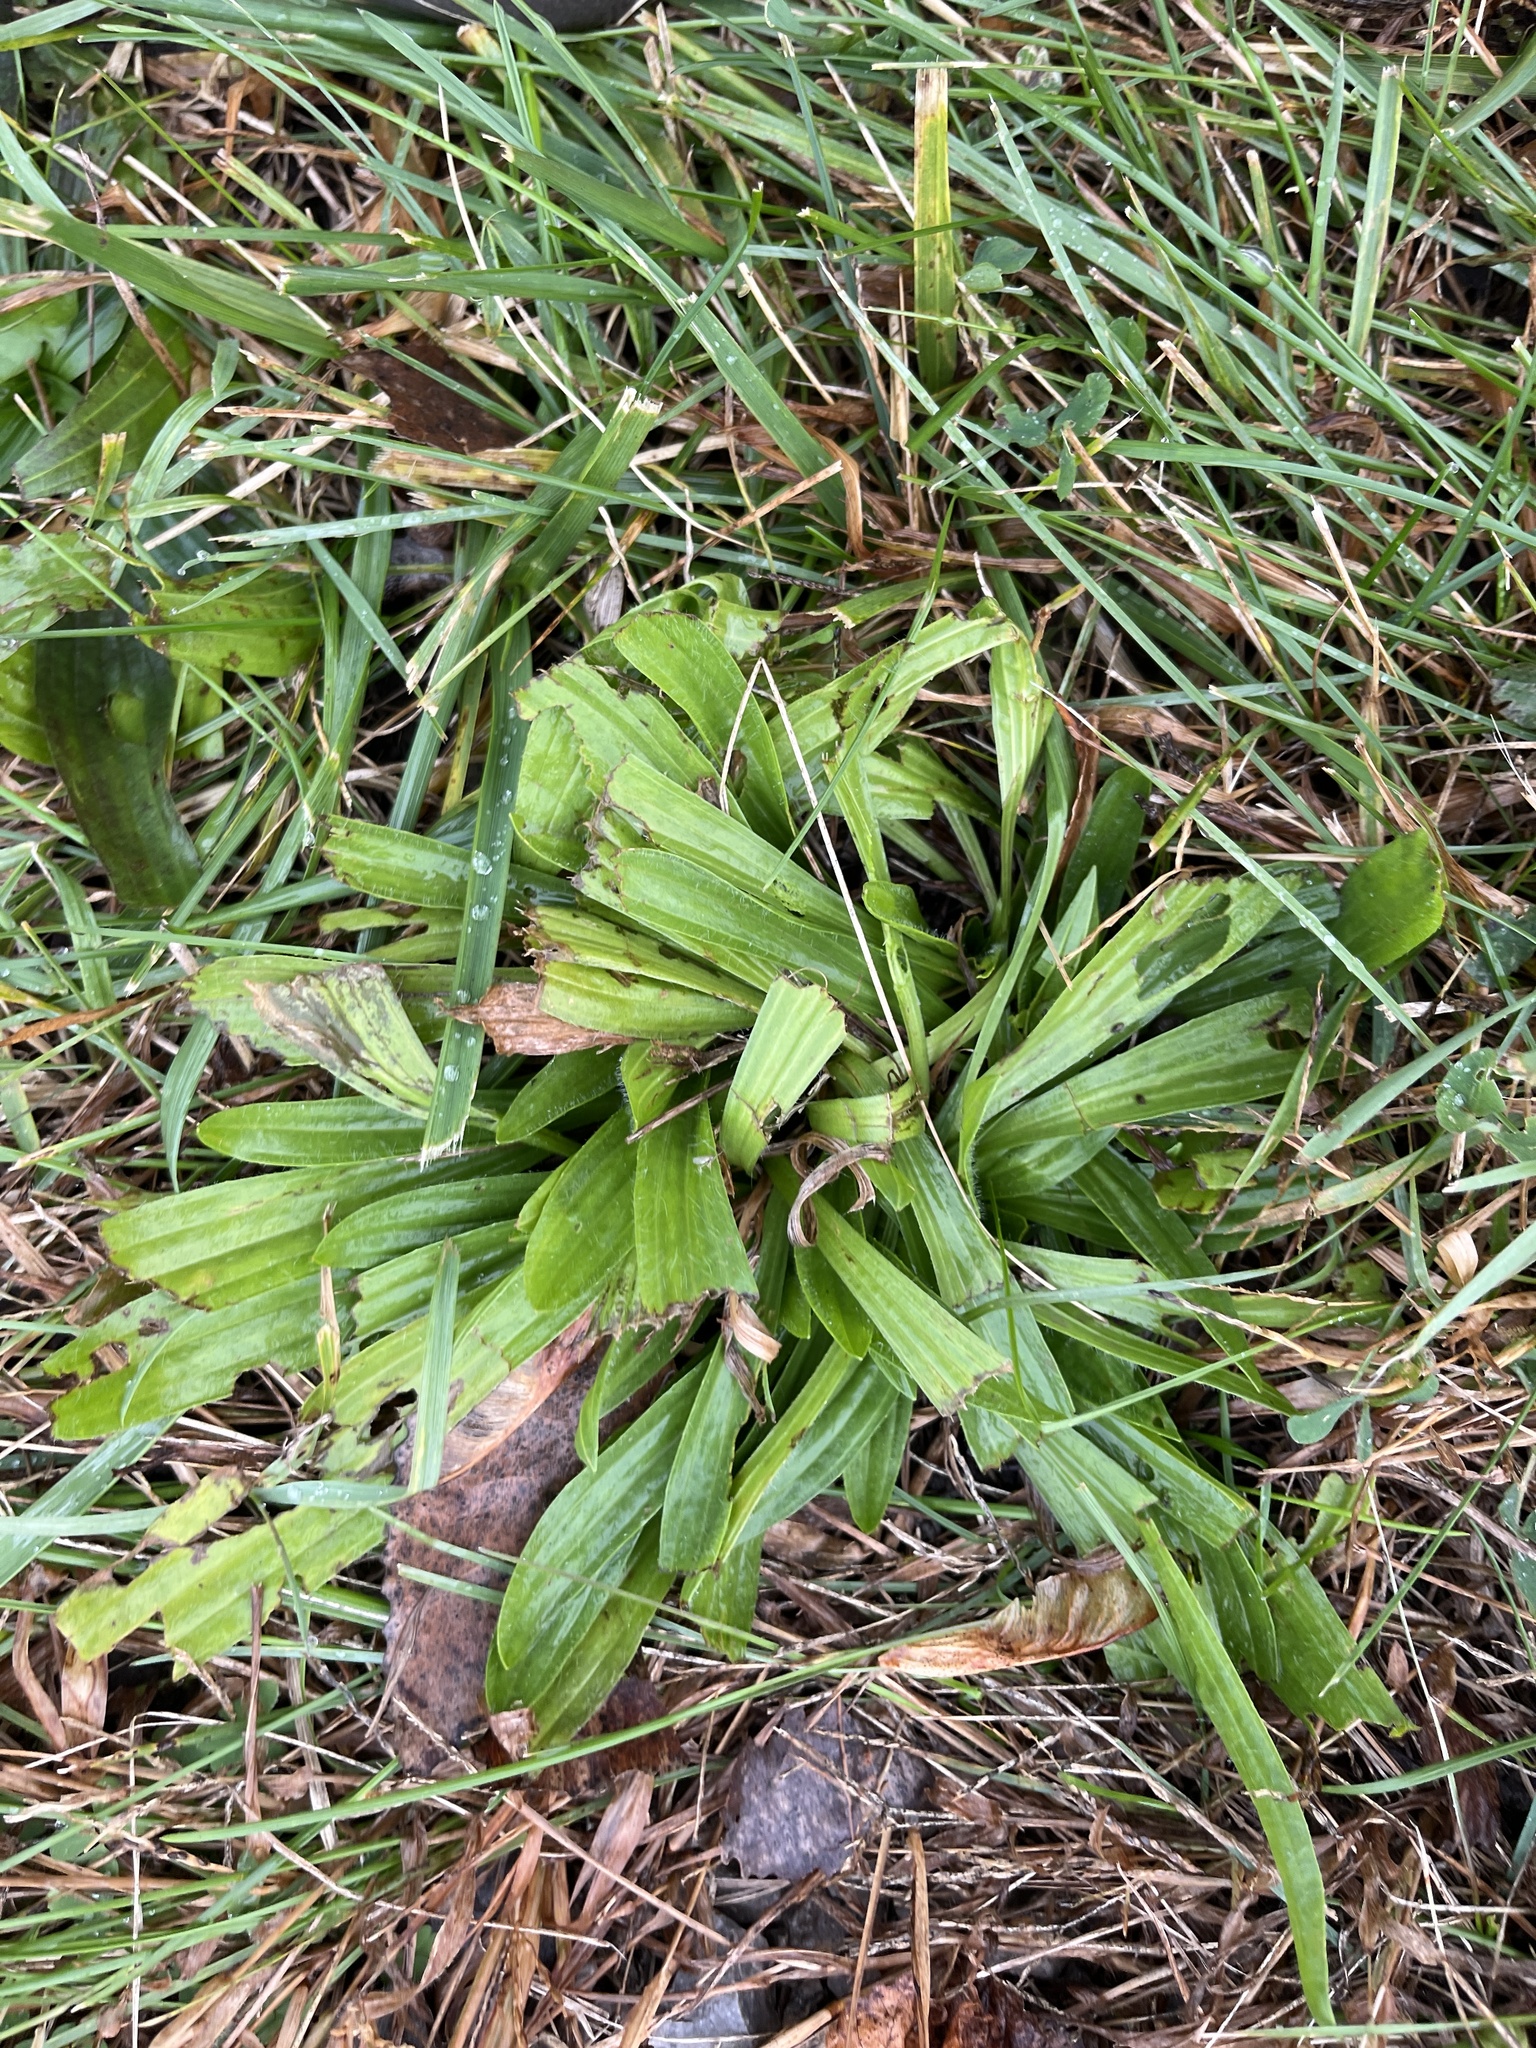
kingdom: Plantae
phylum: Tracheophyta
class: Magnoliopsida
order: Lamiales
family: Plantaginaceae
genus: Plantago
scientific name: Plantago lanceolata
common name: Ribwort plantain
